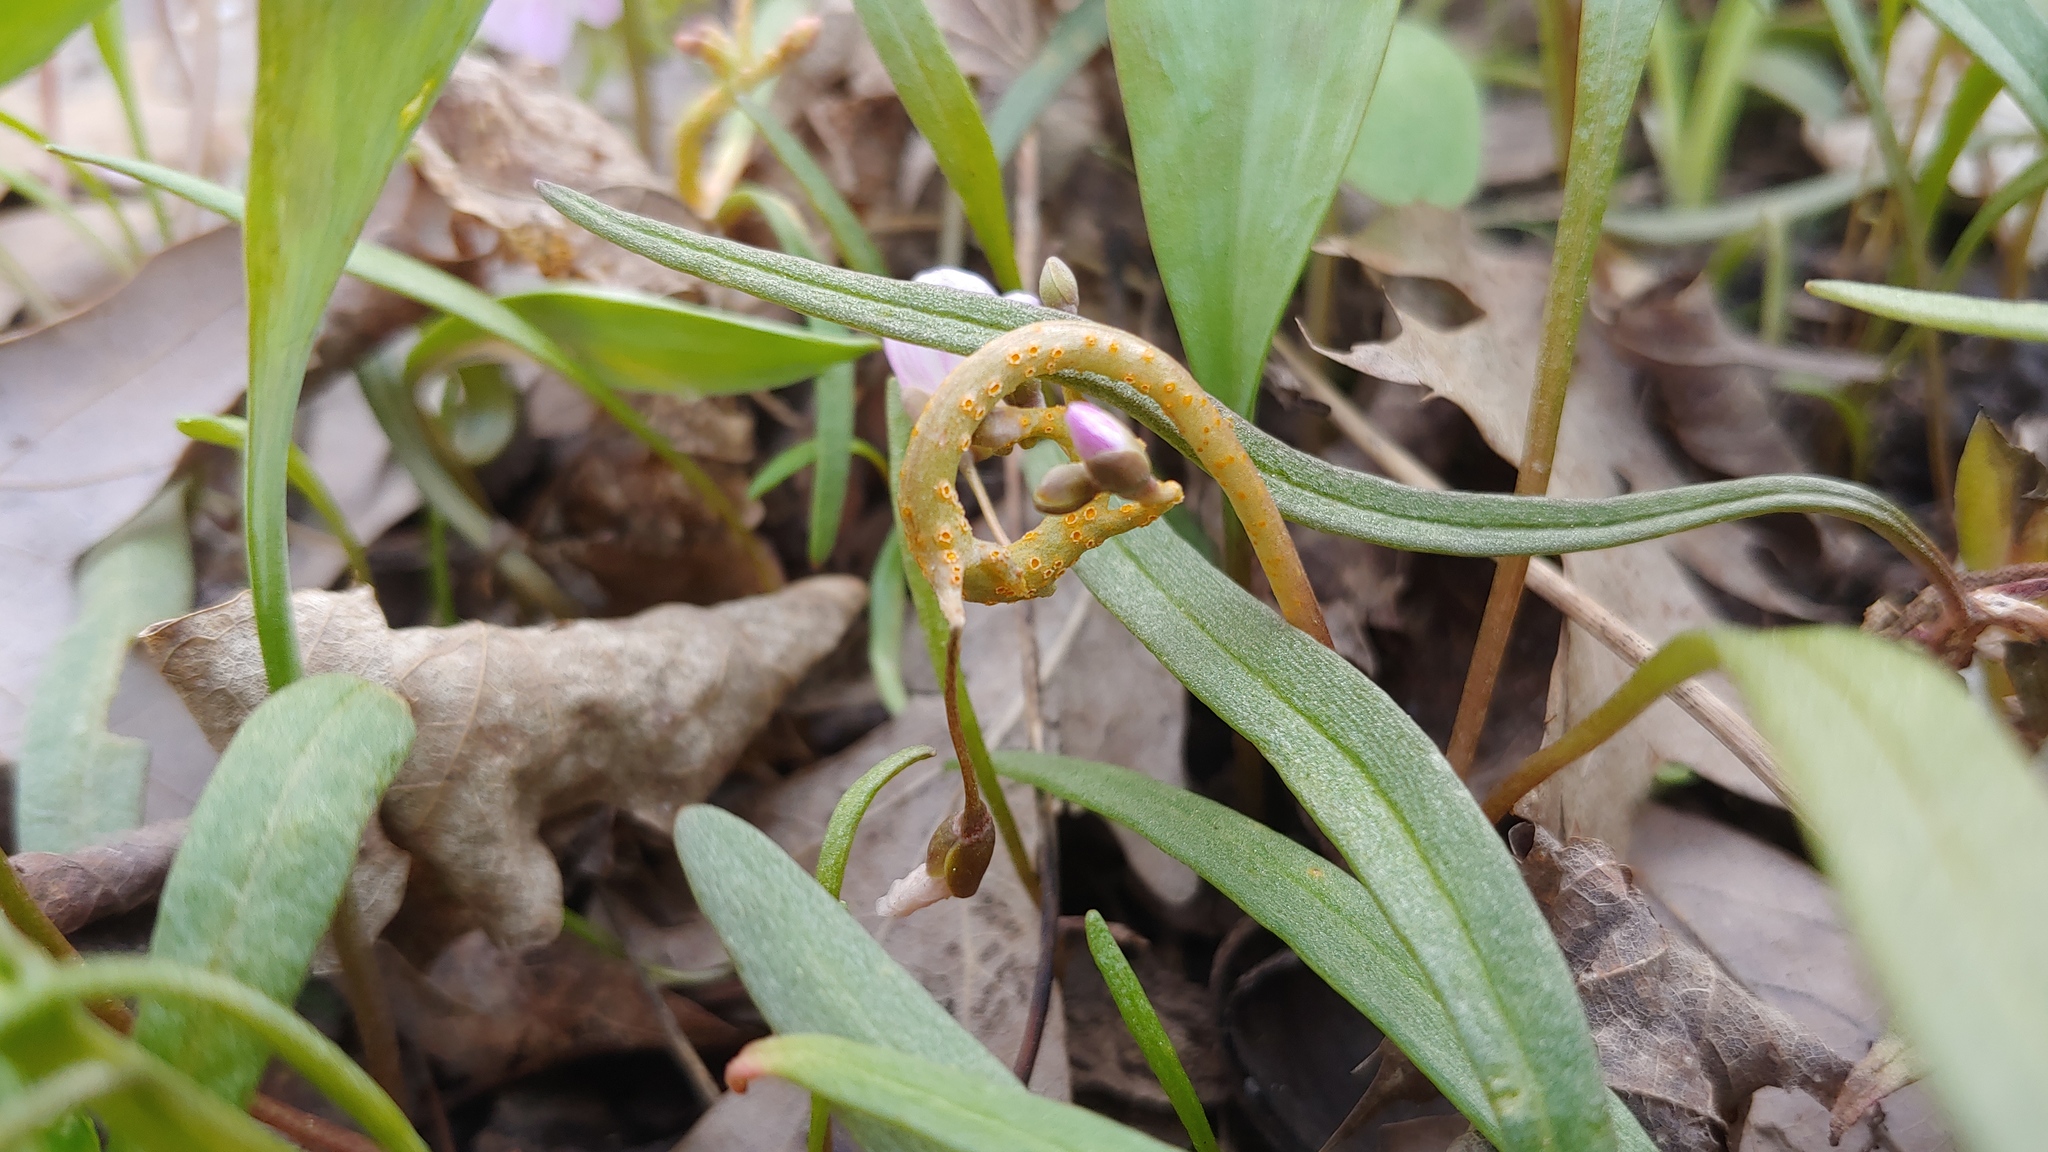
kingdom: Fungi
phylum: Basidiomycota
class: Pucciniomycetes
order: Pucciniales
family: Pucciniaceae
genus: Puccinia
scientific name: Puccinia mariae-wilsoniae
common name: Spring beauty rust
